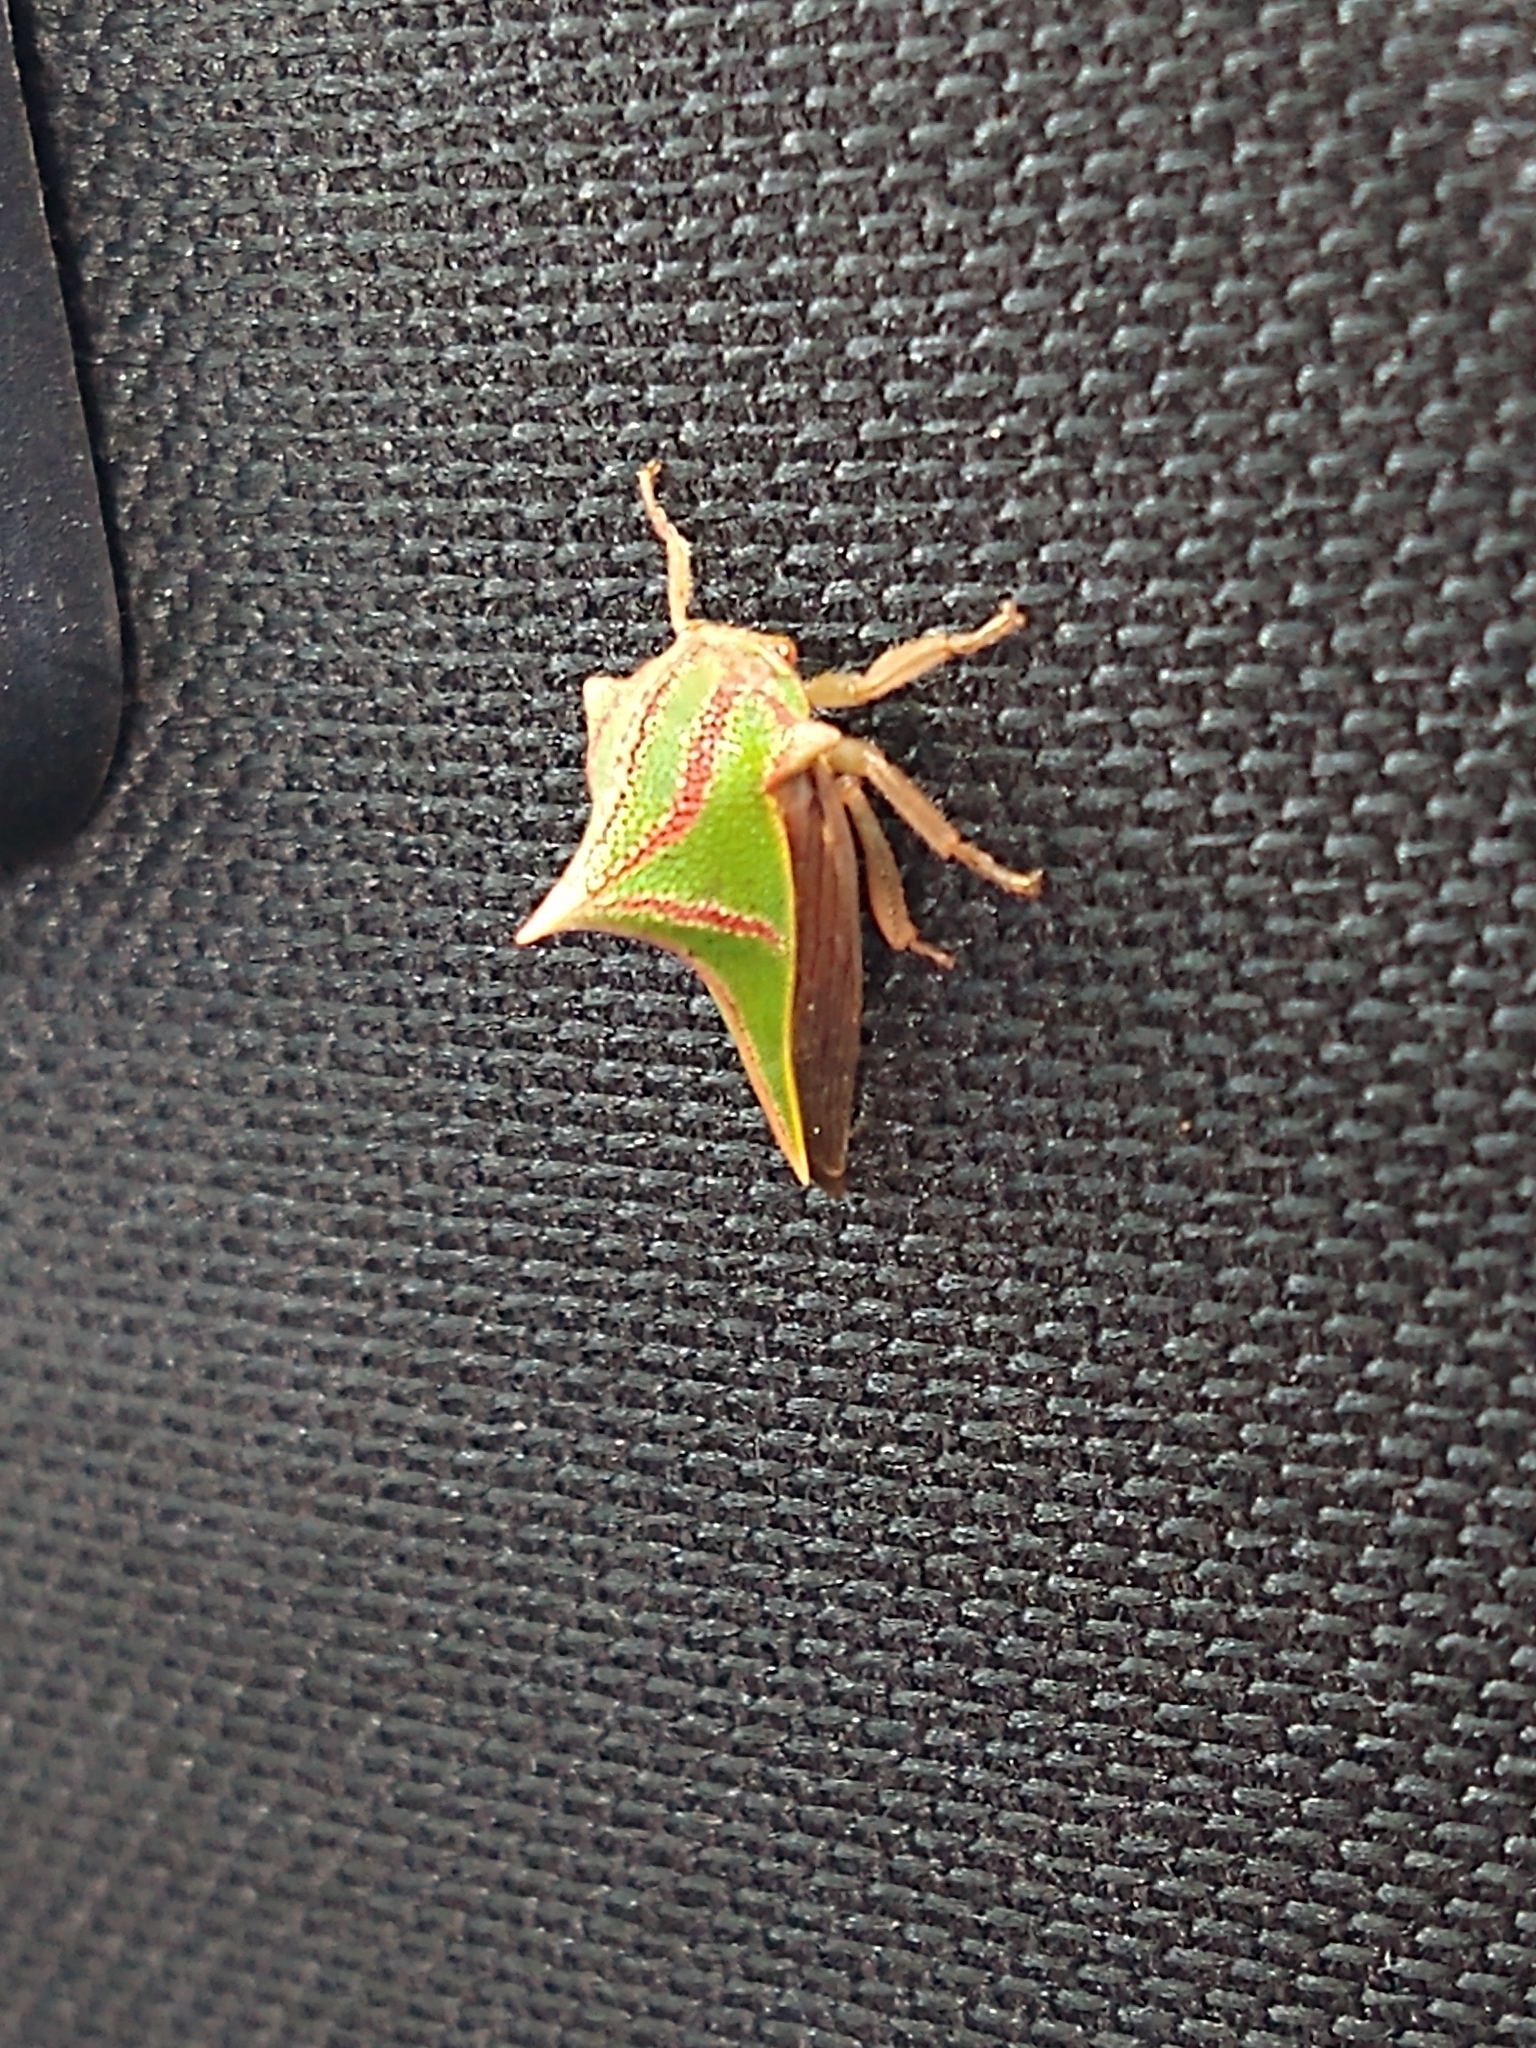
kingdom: Animalia
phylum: Arthropoda
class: Insecta
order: Hemiptera
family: Membracidae
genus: Umbonia
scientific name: Umbonia spinosa
